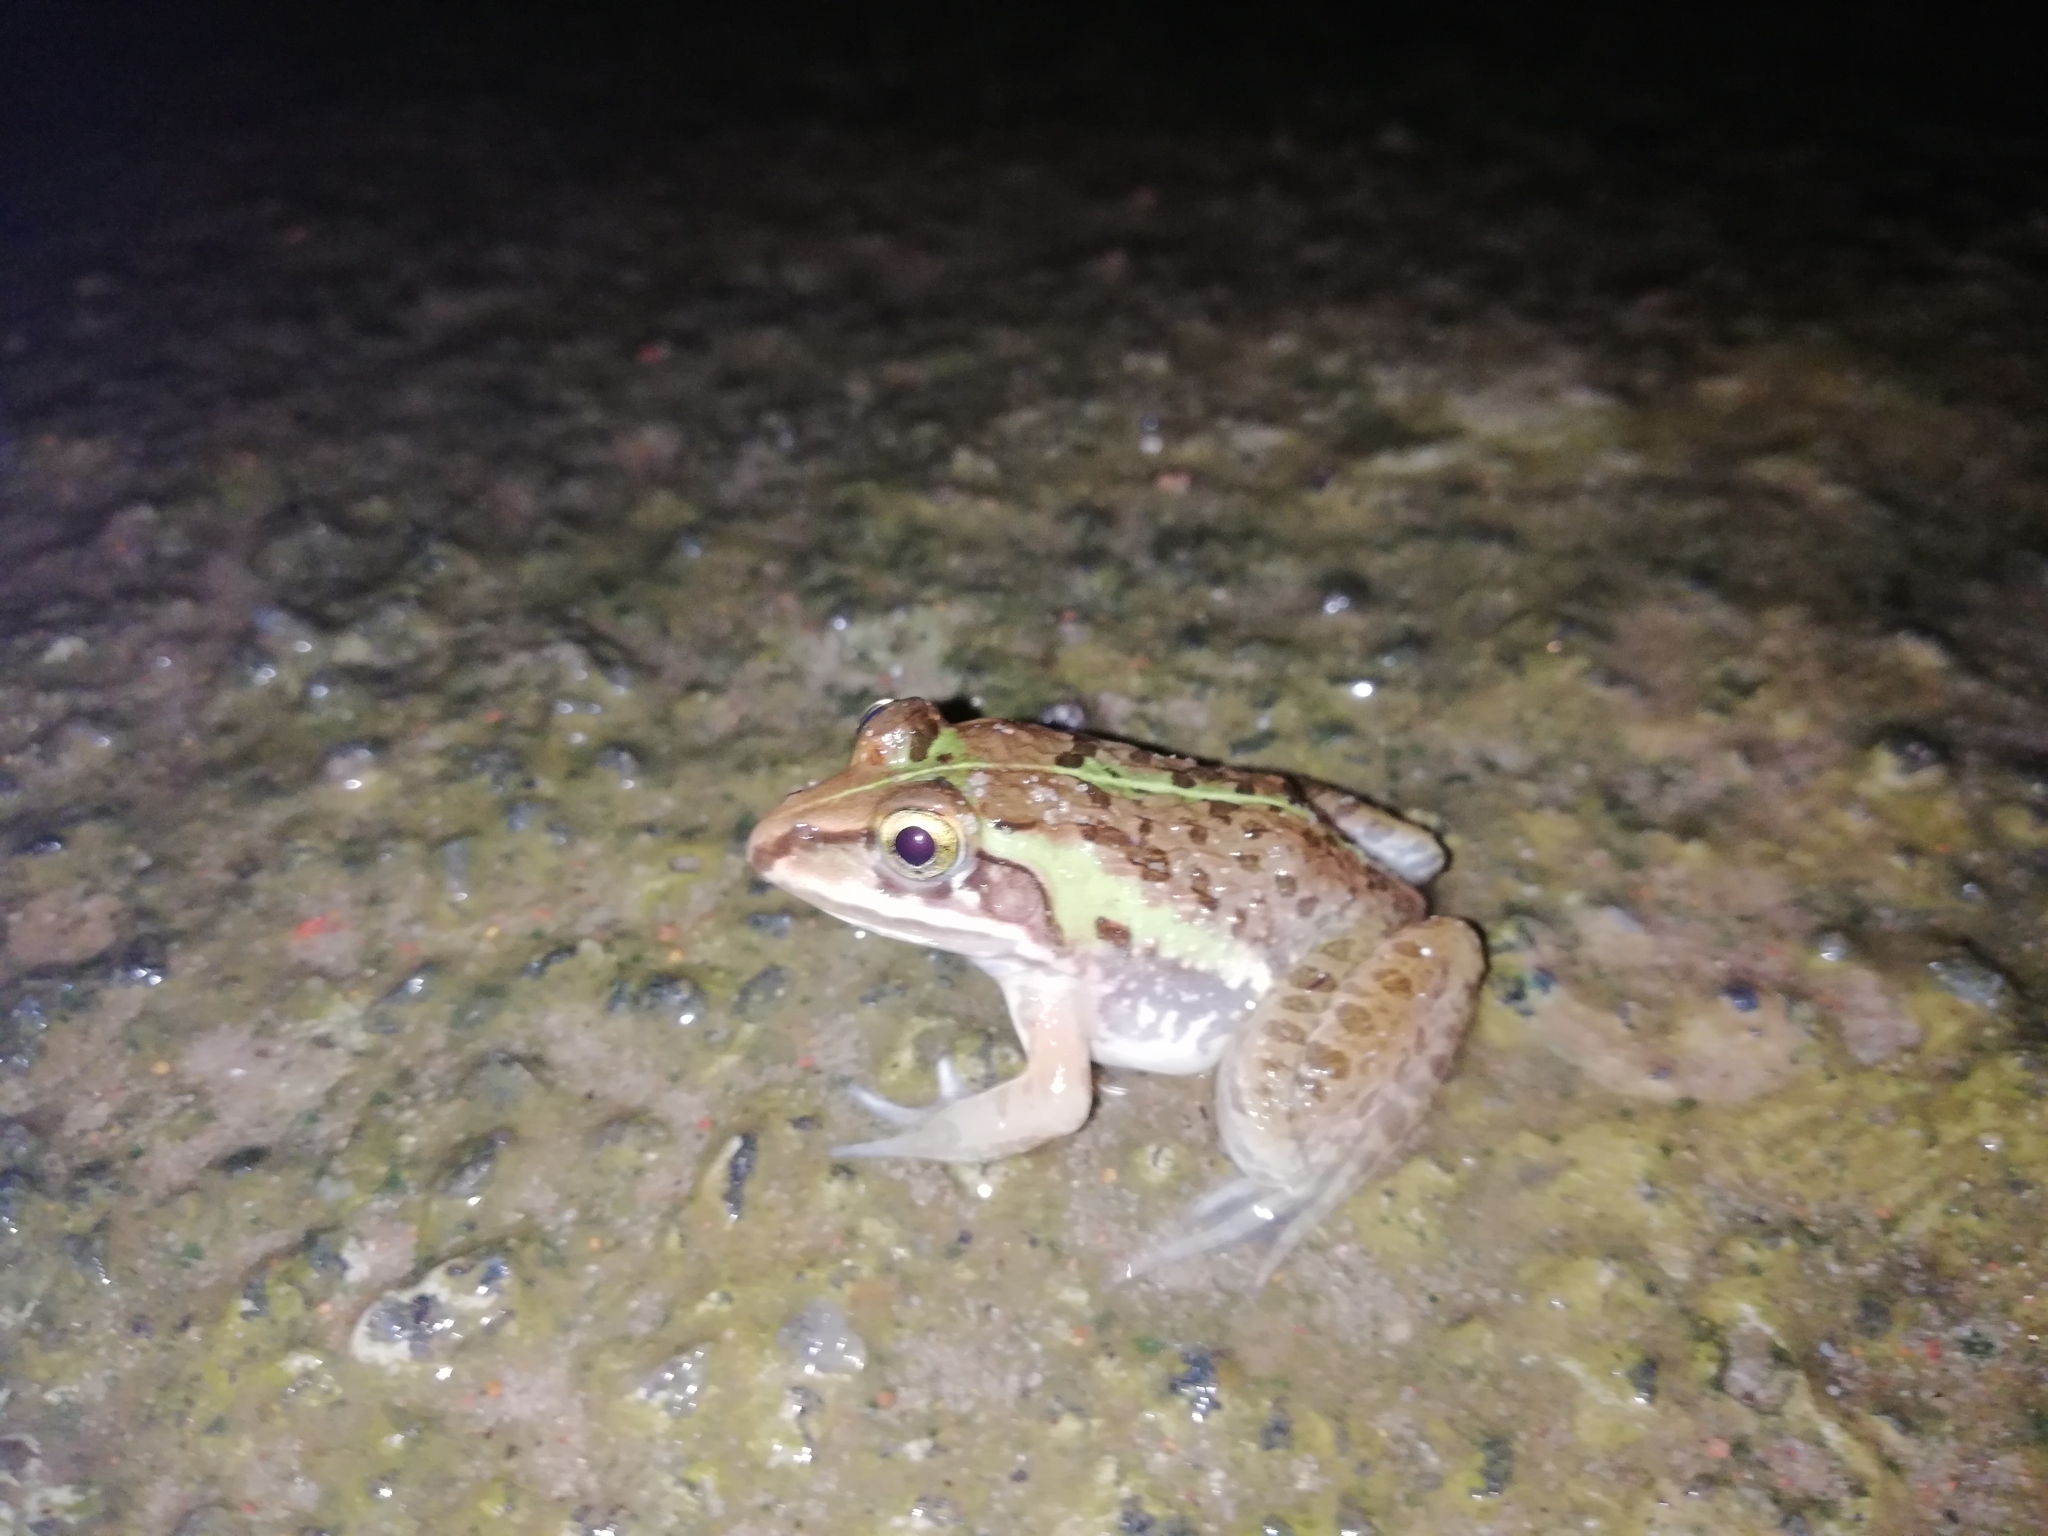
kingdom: Animalia
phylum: Chordata
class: Amphibia
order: Anura
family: Dicroglossidae
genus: Hoplobatrachus
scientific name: Hoplobatrachus tigerinus
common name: Indian bullfrog
